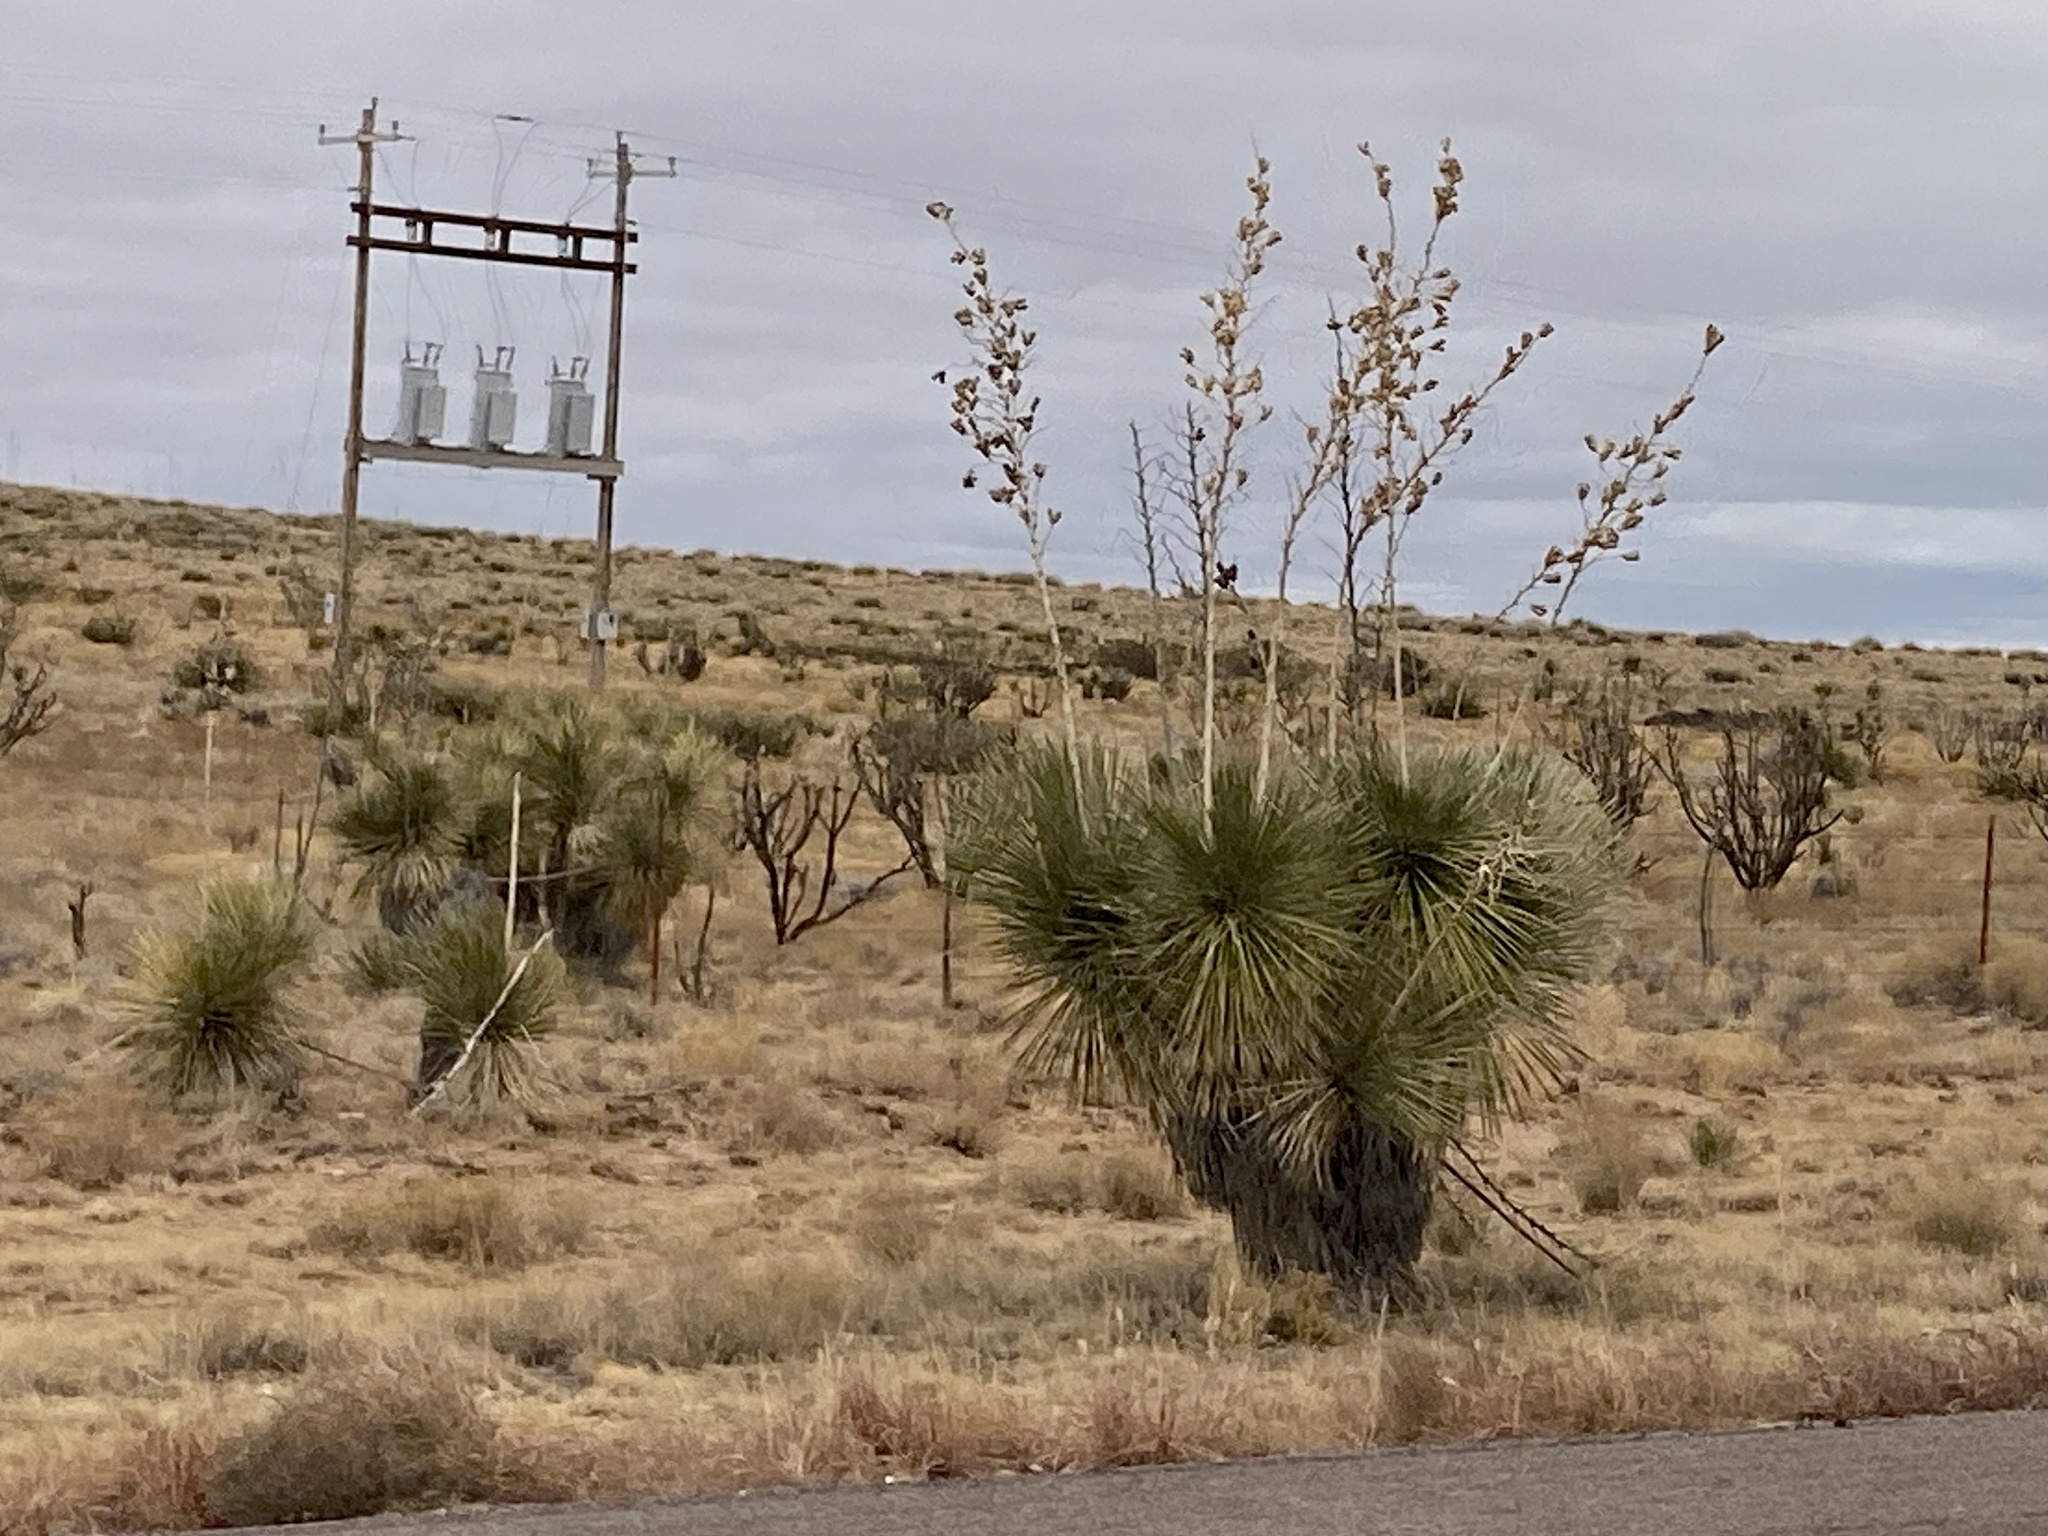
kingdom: Plantae
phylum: Tracheophyta
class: Liliopsida
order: Asparagales
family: Asparagaceae
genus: Yucca
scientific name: Yucca elata
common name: Palmella
